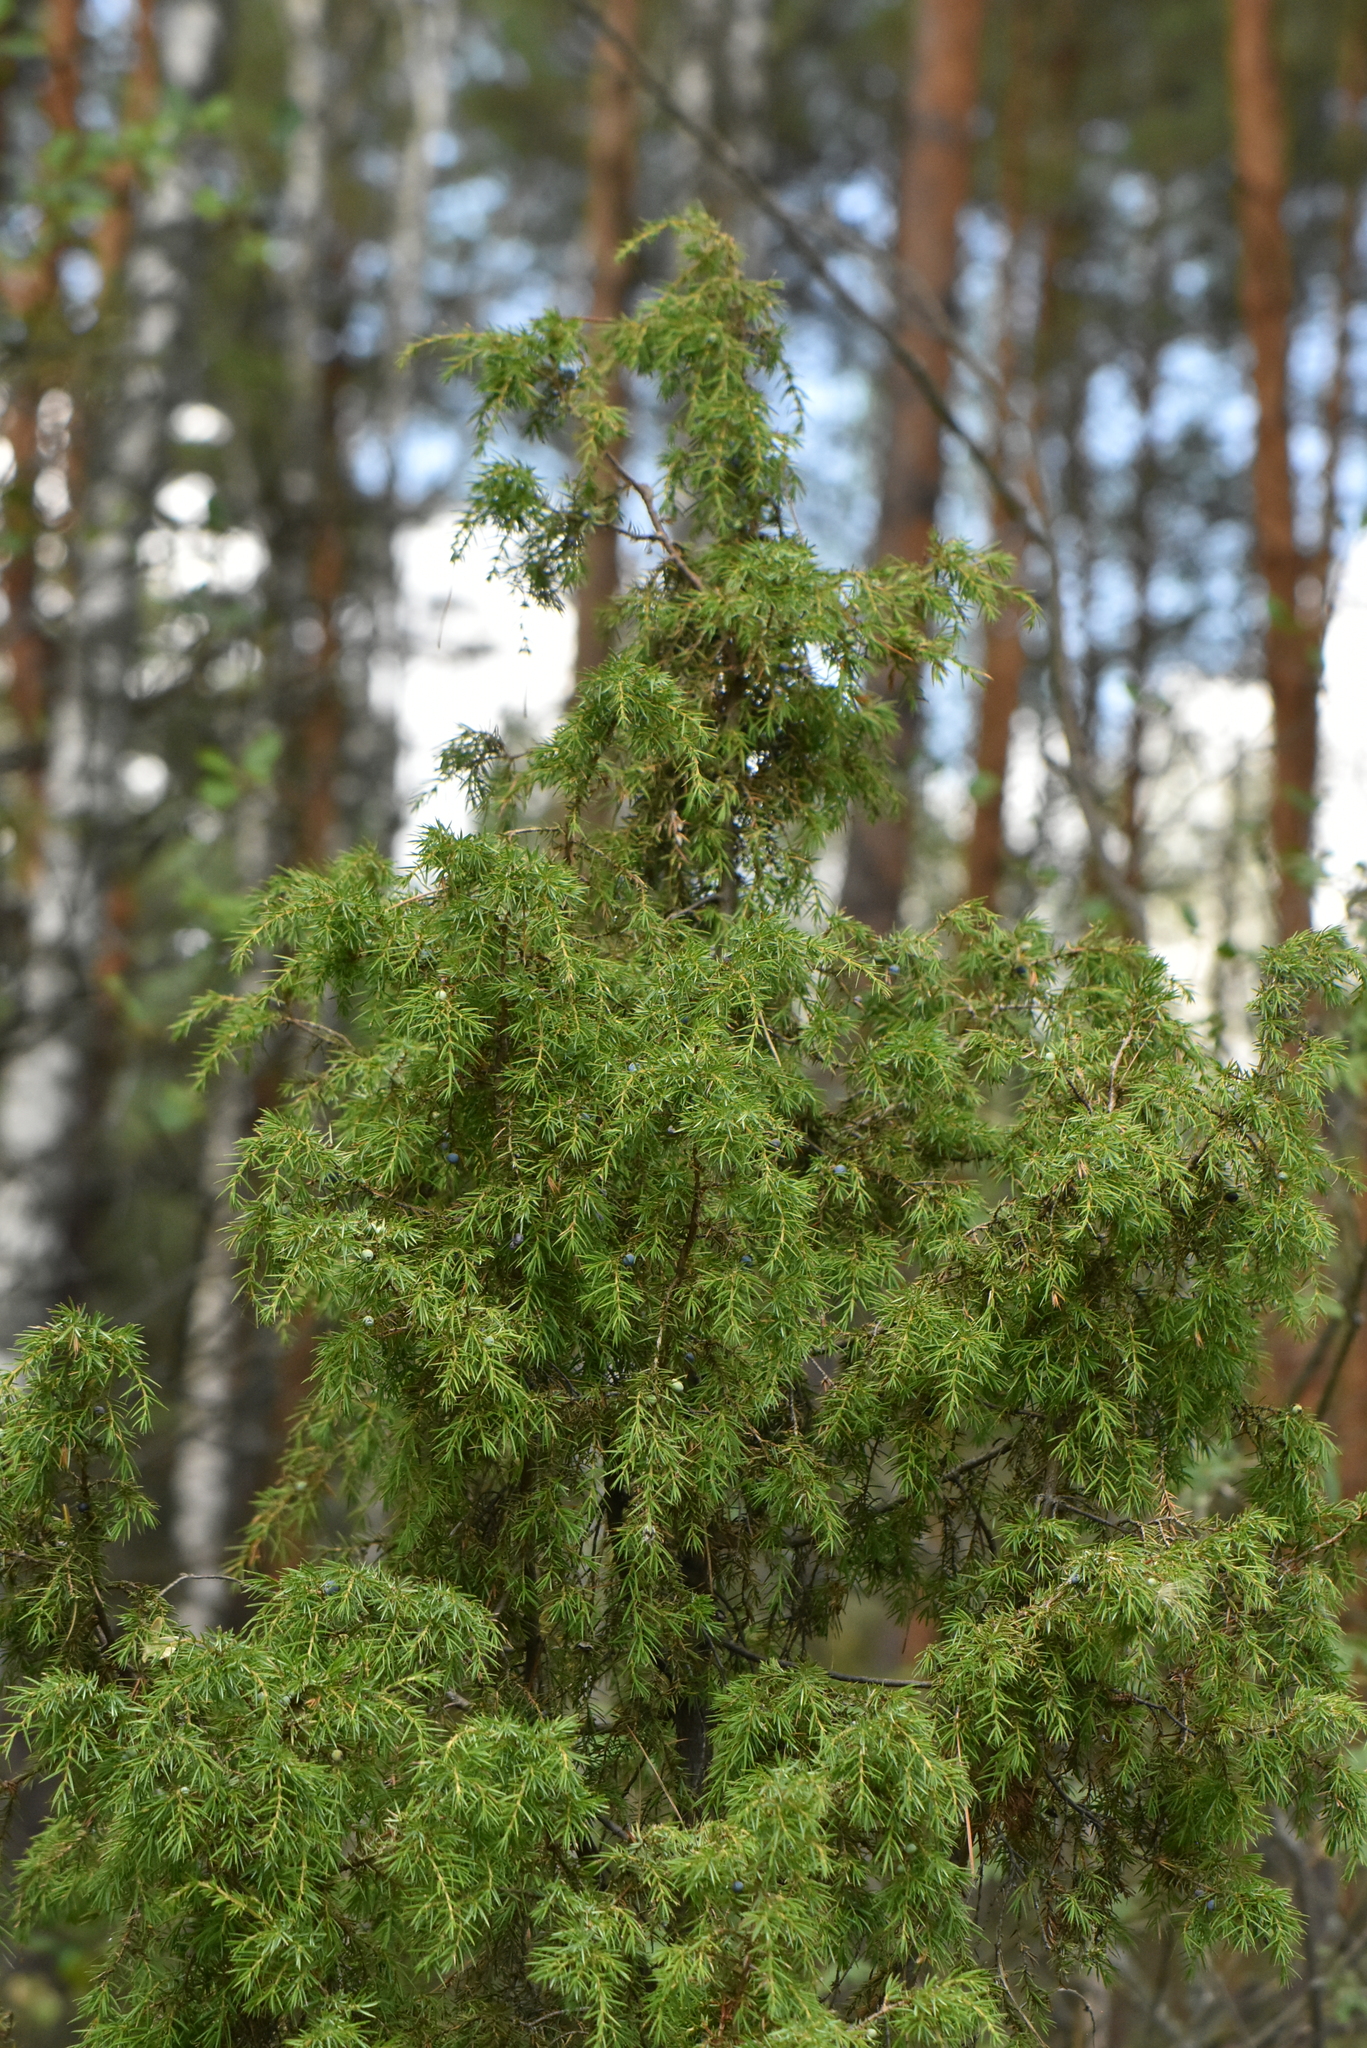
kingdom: Plantae
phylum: Tracheophyta
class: Pinopsida
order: Pinales
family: Cupressaceae
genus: Juniperus
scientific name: Juniperus communis
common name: Common juniper
